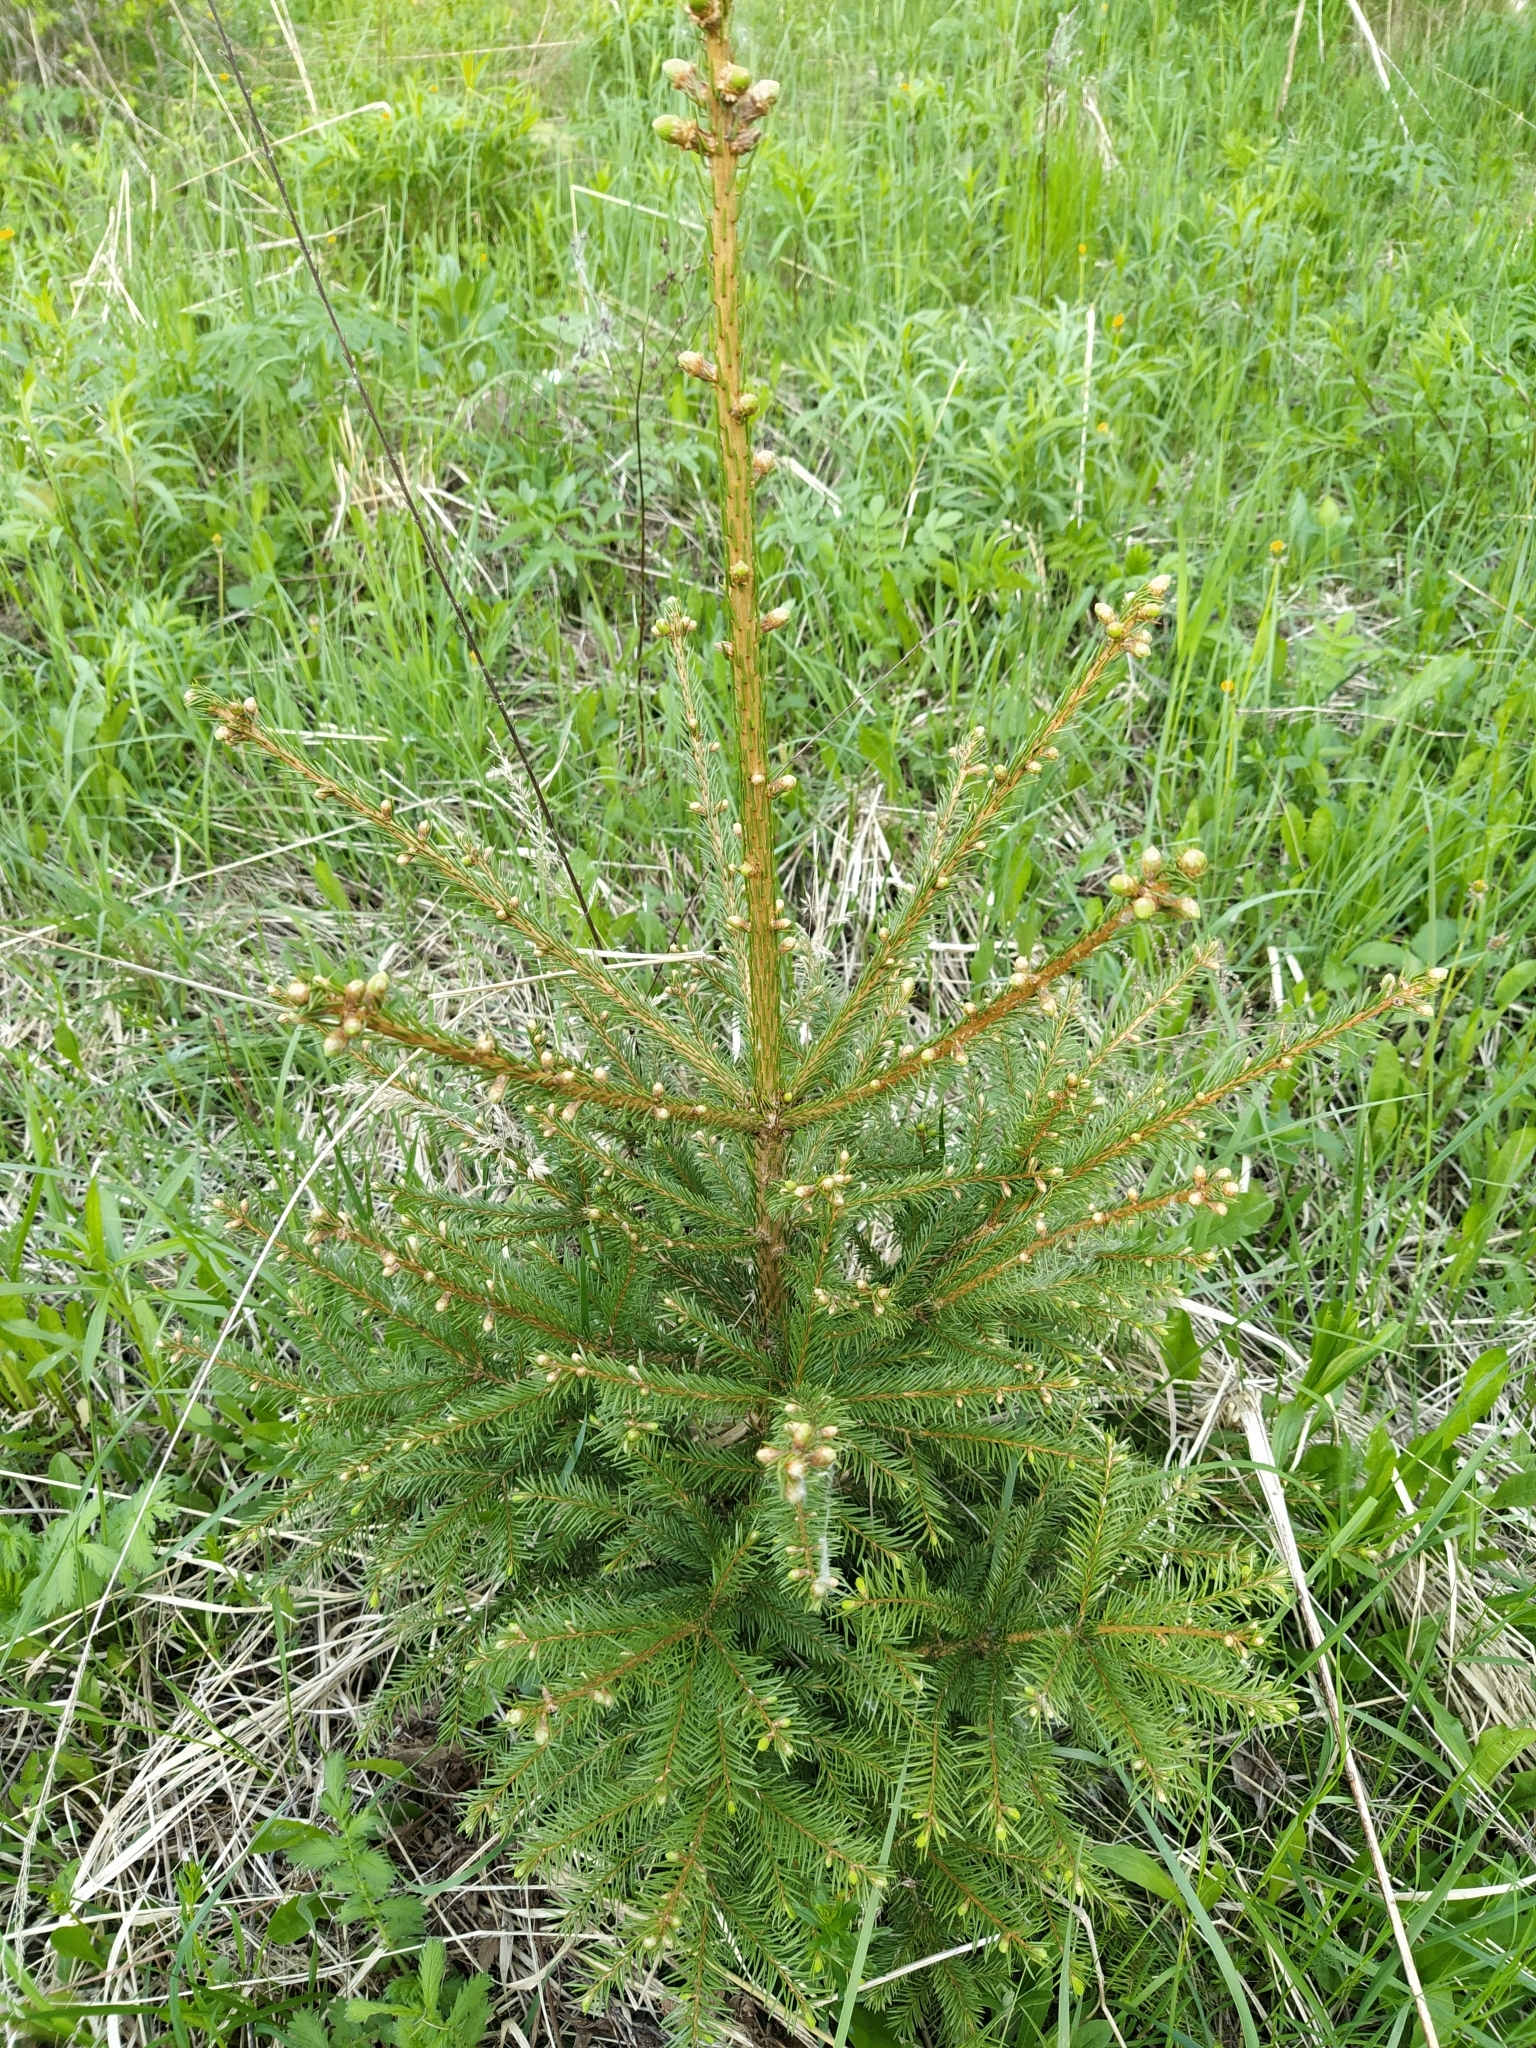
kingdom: Plantae
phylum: Tracheophyta
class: Pinopsida
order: Pinales
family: Pinaceae
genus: Picea
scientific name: Picea abies
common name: Norway spruce
